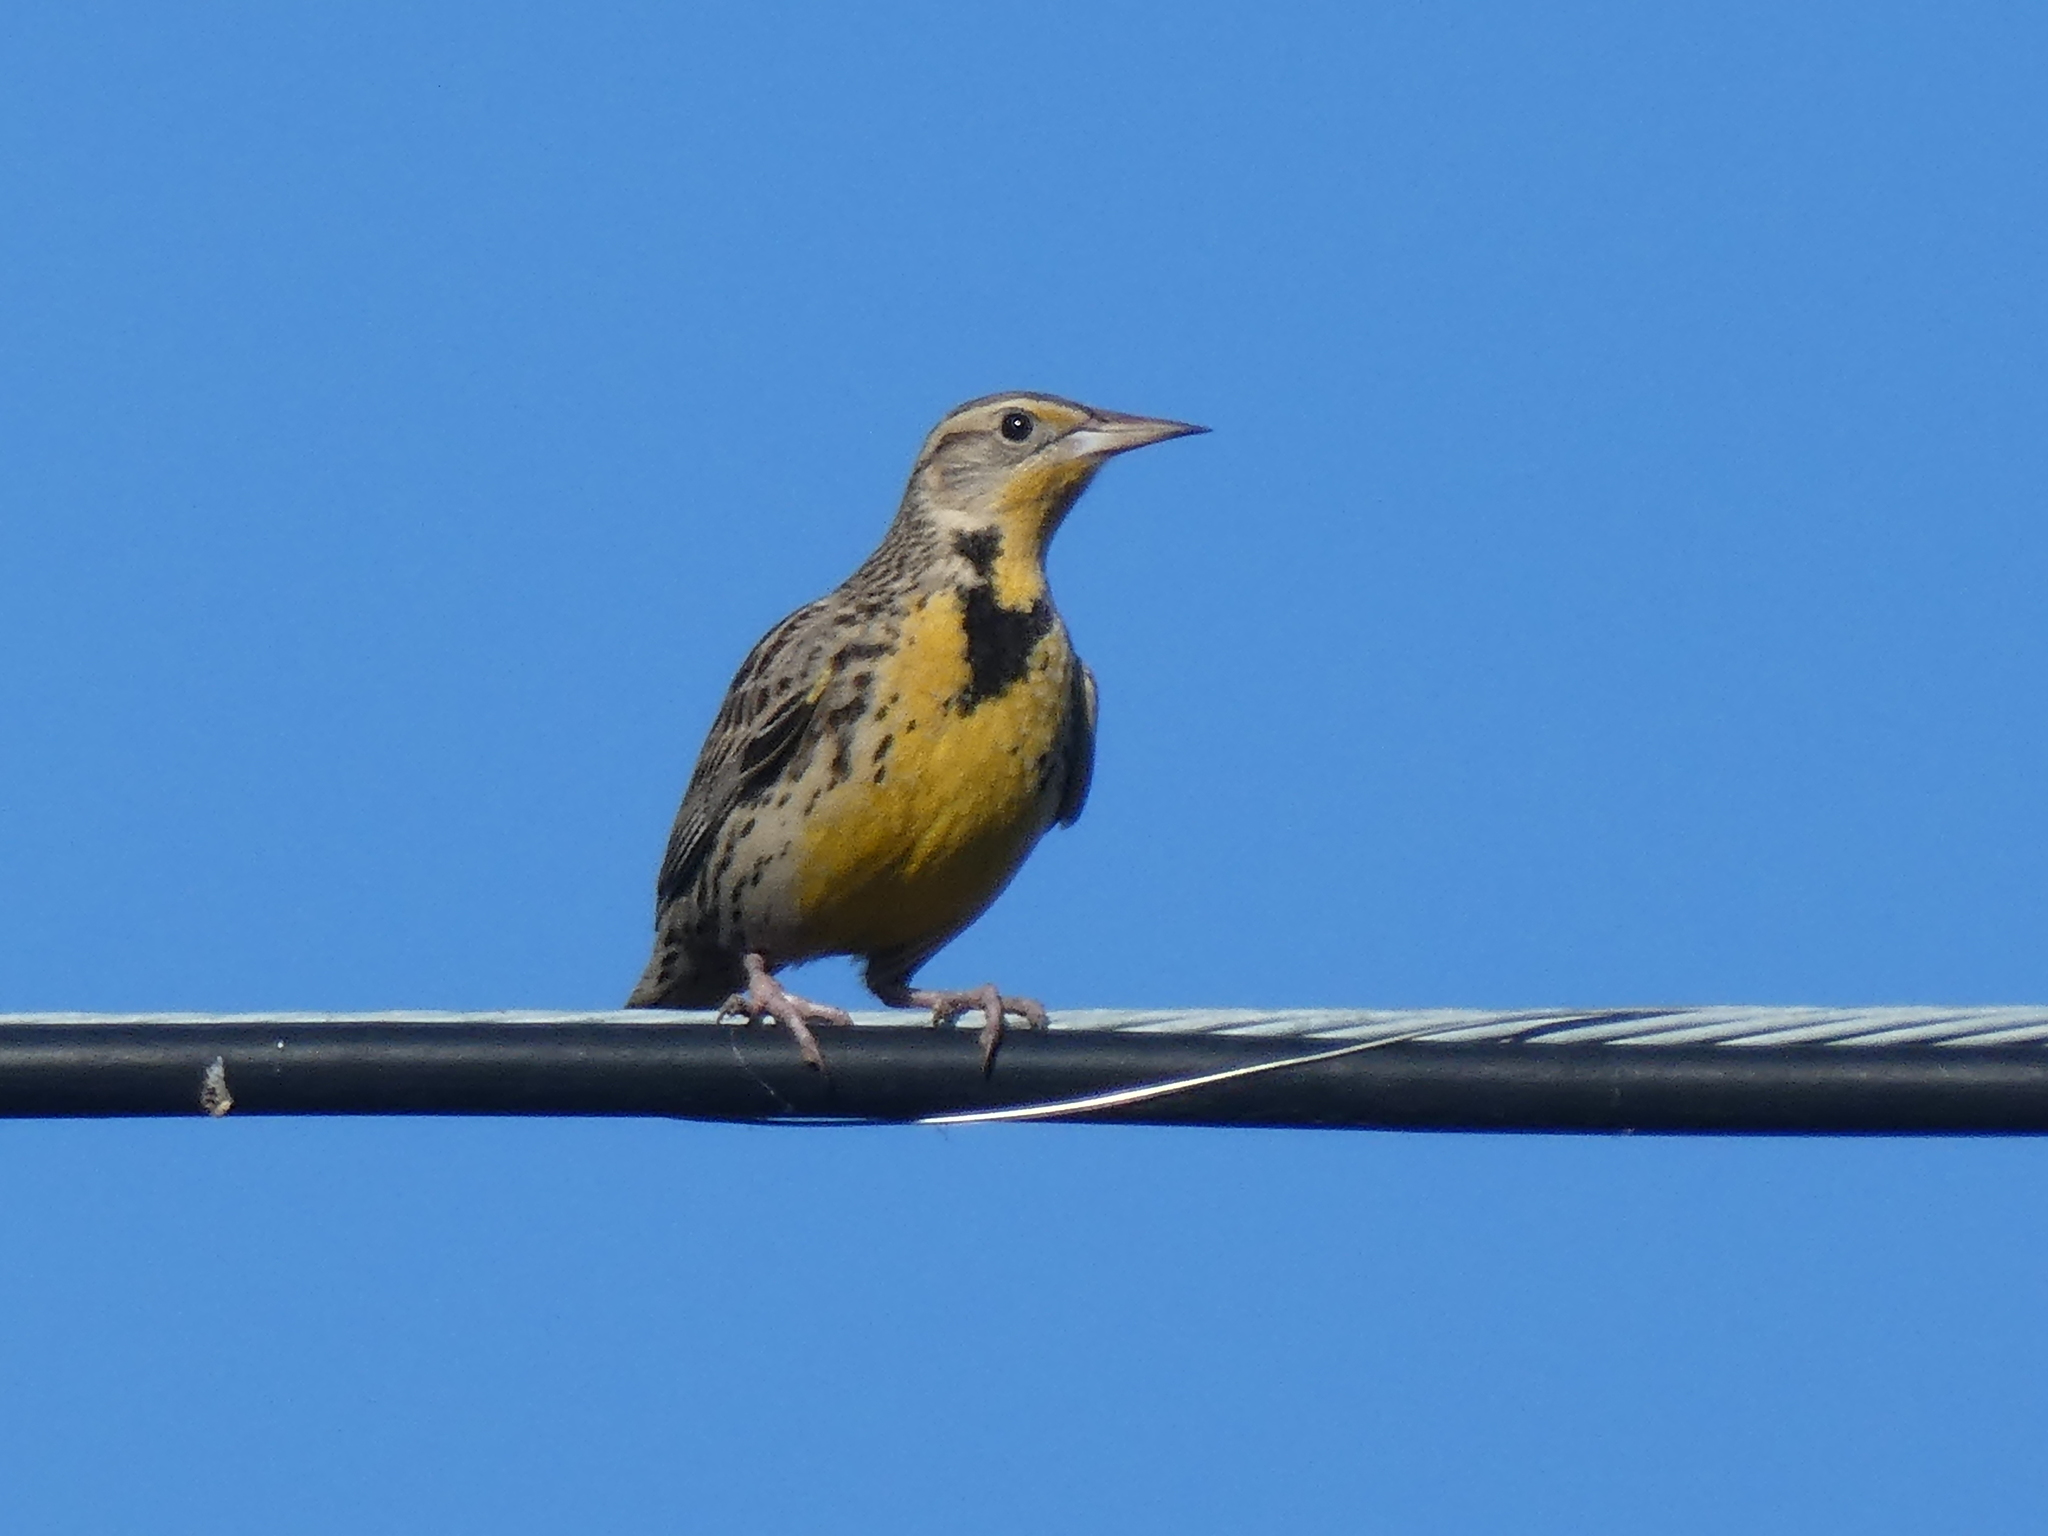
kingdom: Animalia
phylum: Chordata
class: Aves
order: Passeriformes
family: Icteridae
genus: Sturnella
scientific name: Sturnella neglecta
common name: Western meadowlark
